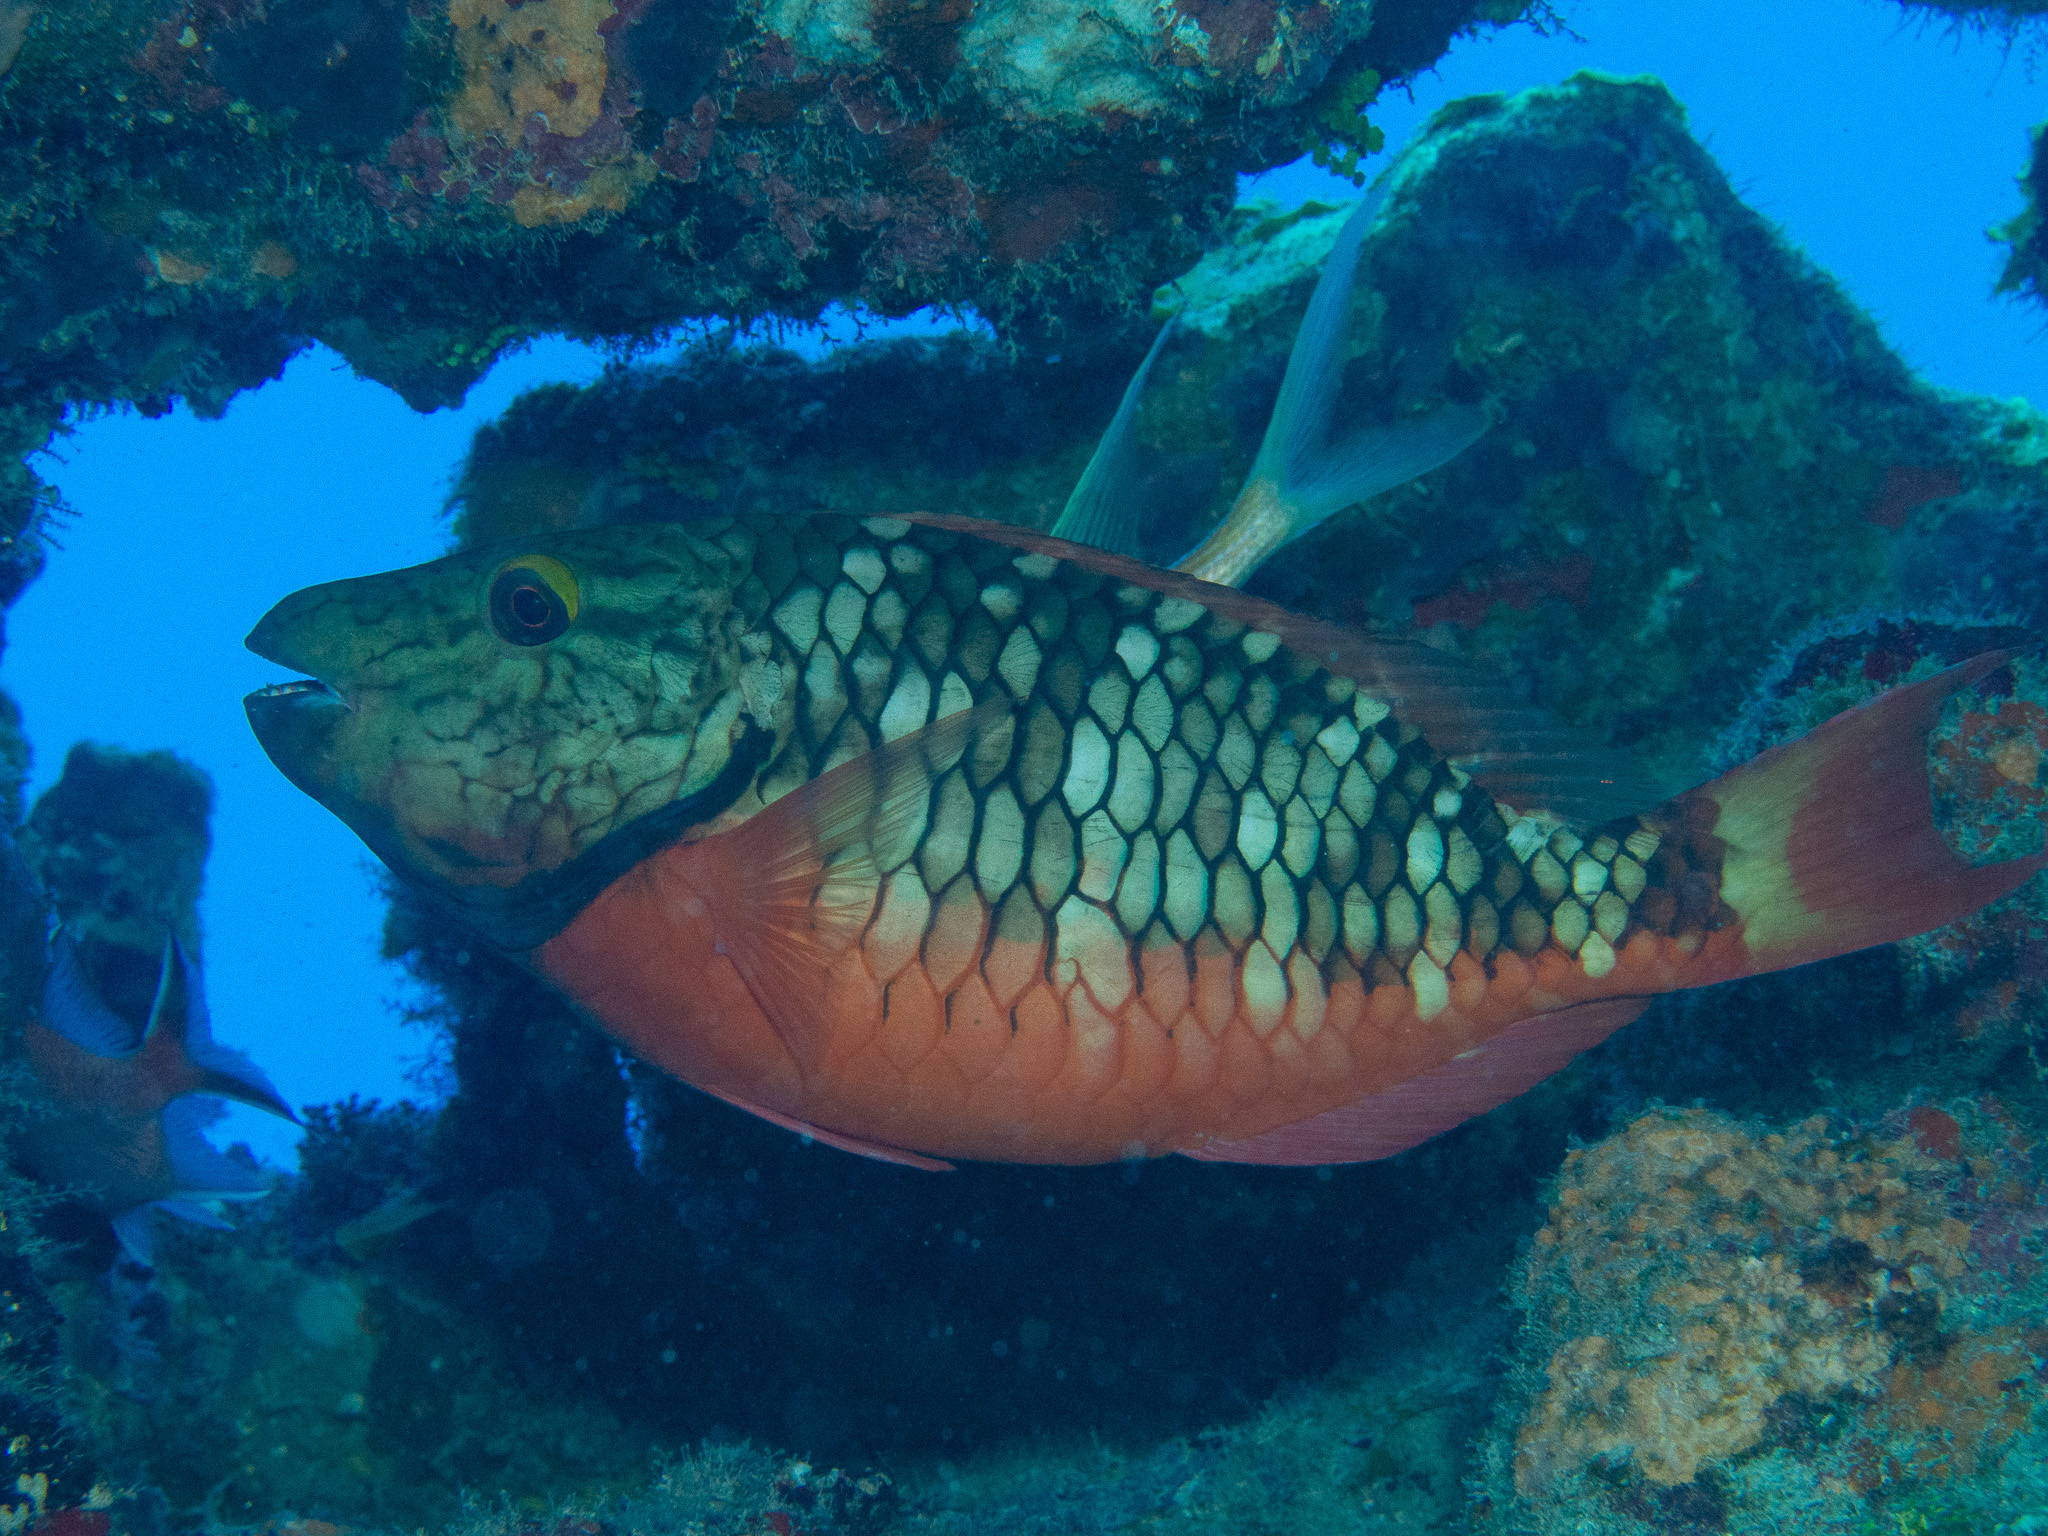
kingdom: Animalia
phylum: Chordata
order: Perciformes
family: Scaridae
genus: Sparisoma
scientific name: Sparisoma viride
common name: Stoplight parrotfish
